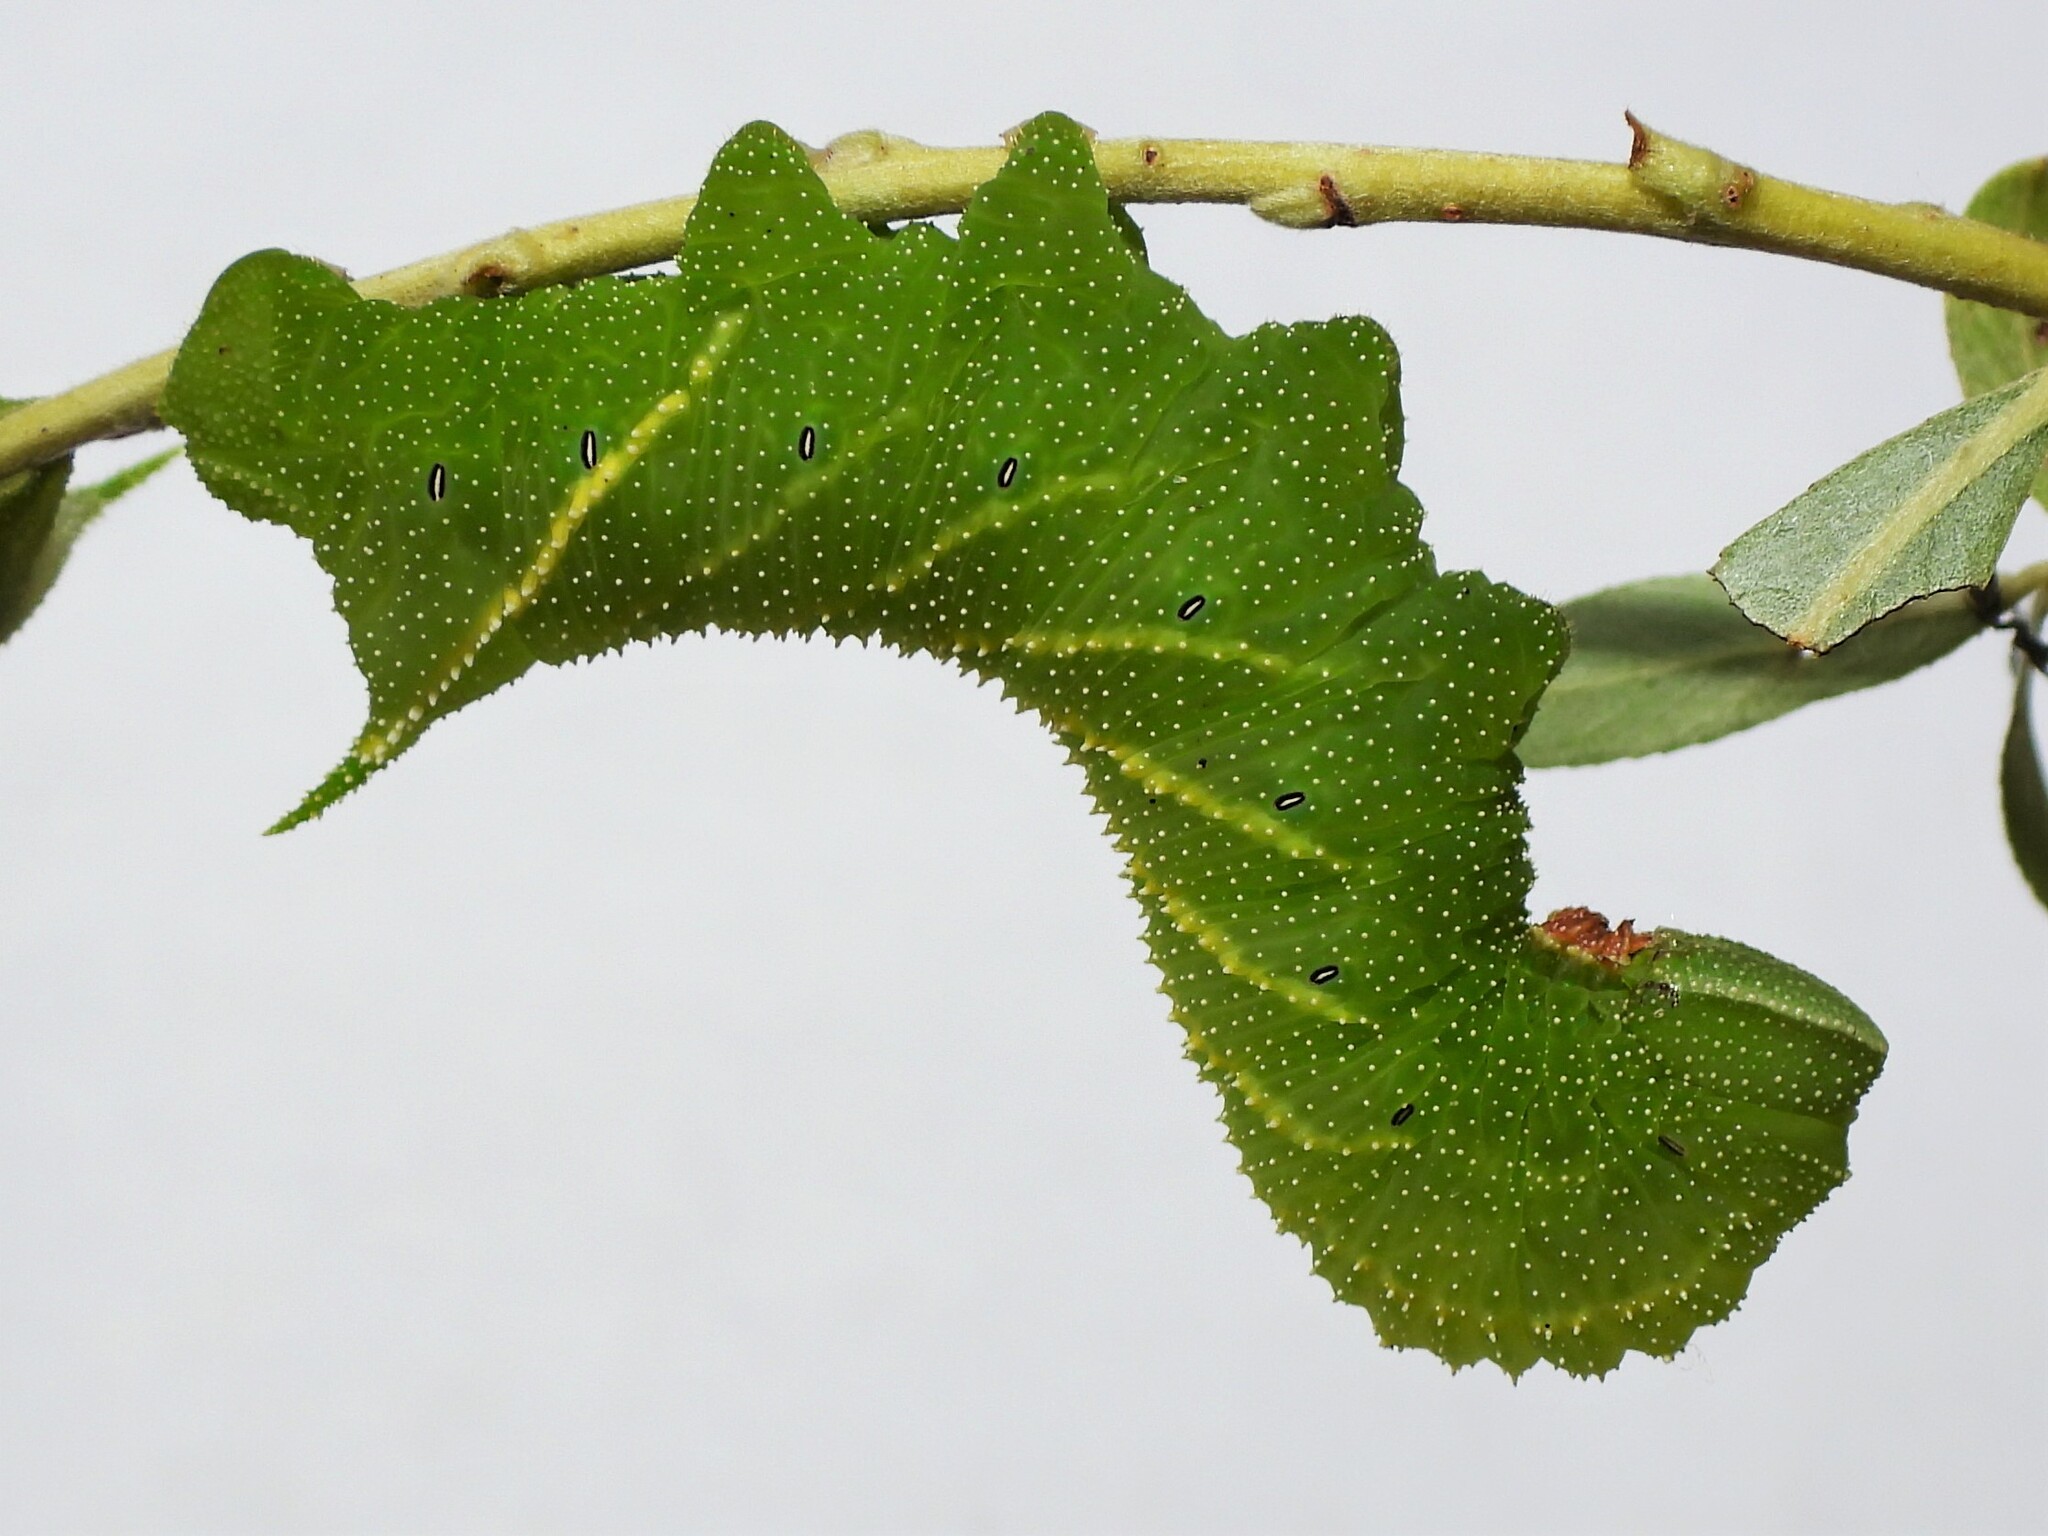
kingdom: Animalia
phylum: Arthropoda
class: Insecta
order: Lepidoptera
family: Sphingidae
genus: Paonias
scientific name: Paonias excaecata
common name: Blind-eyed sphinx
